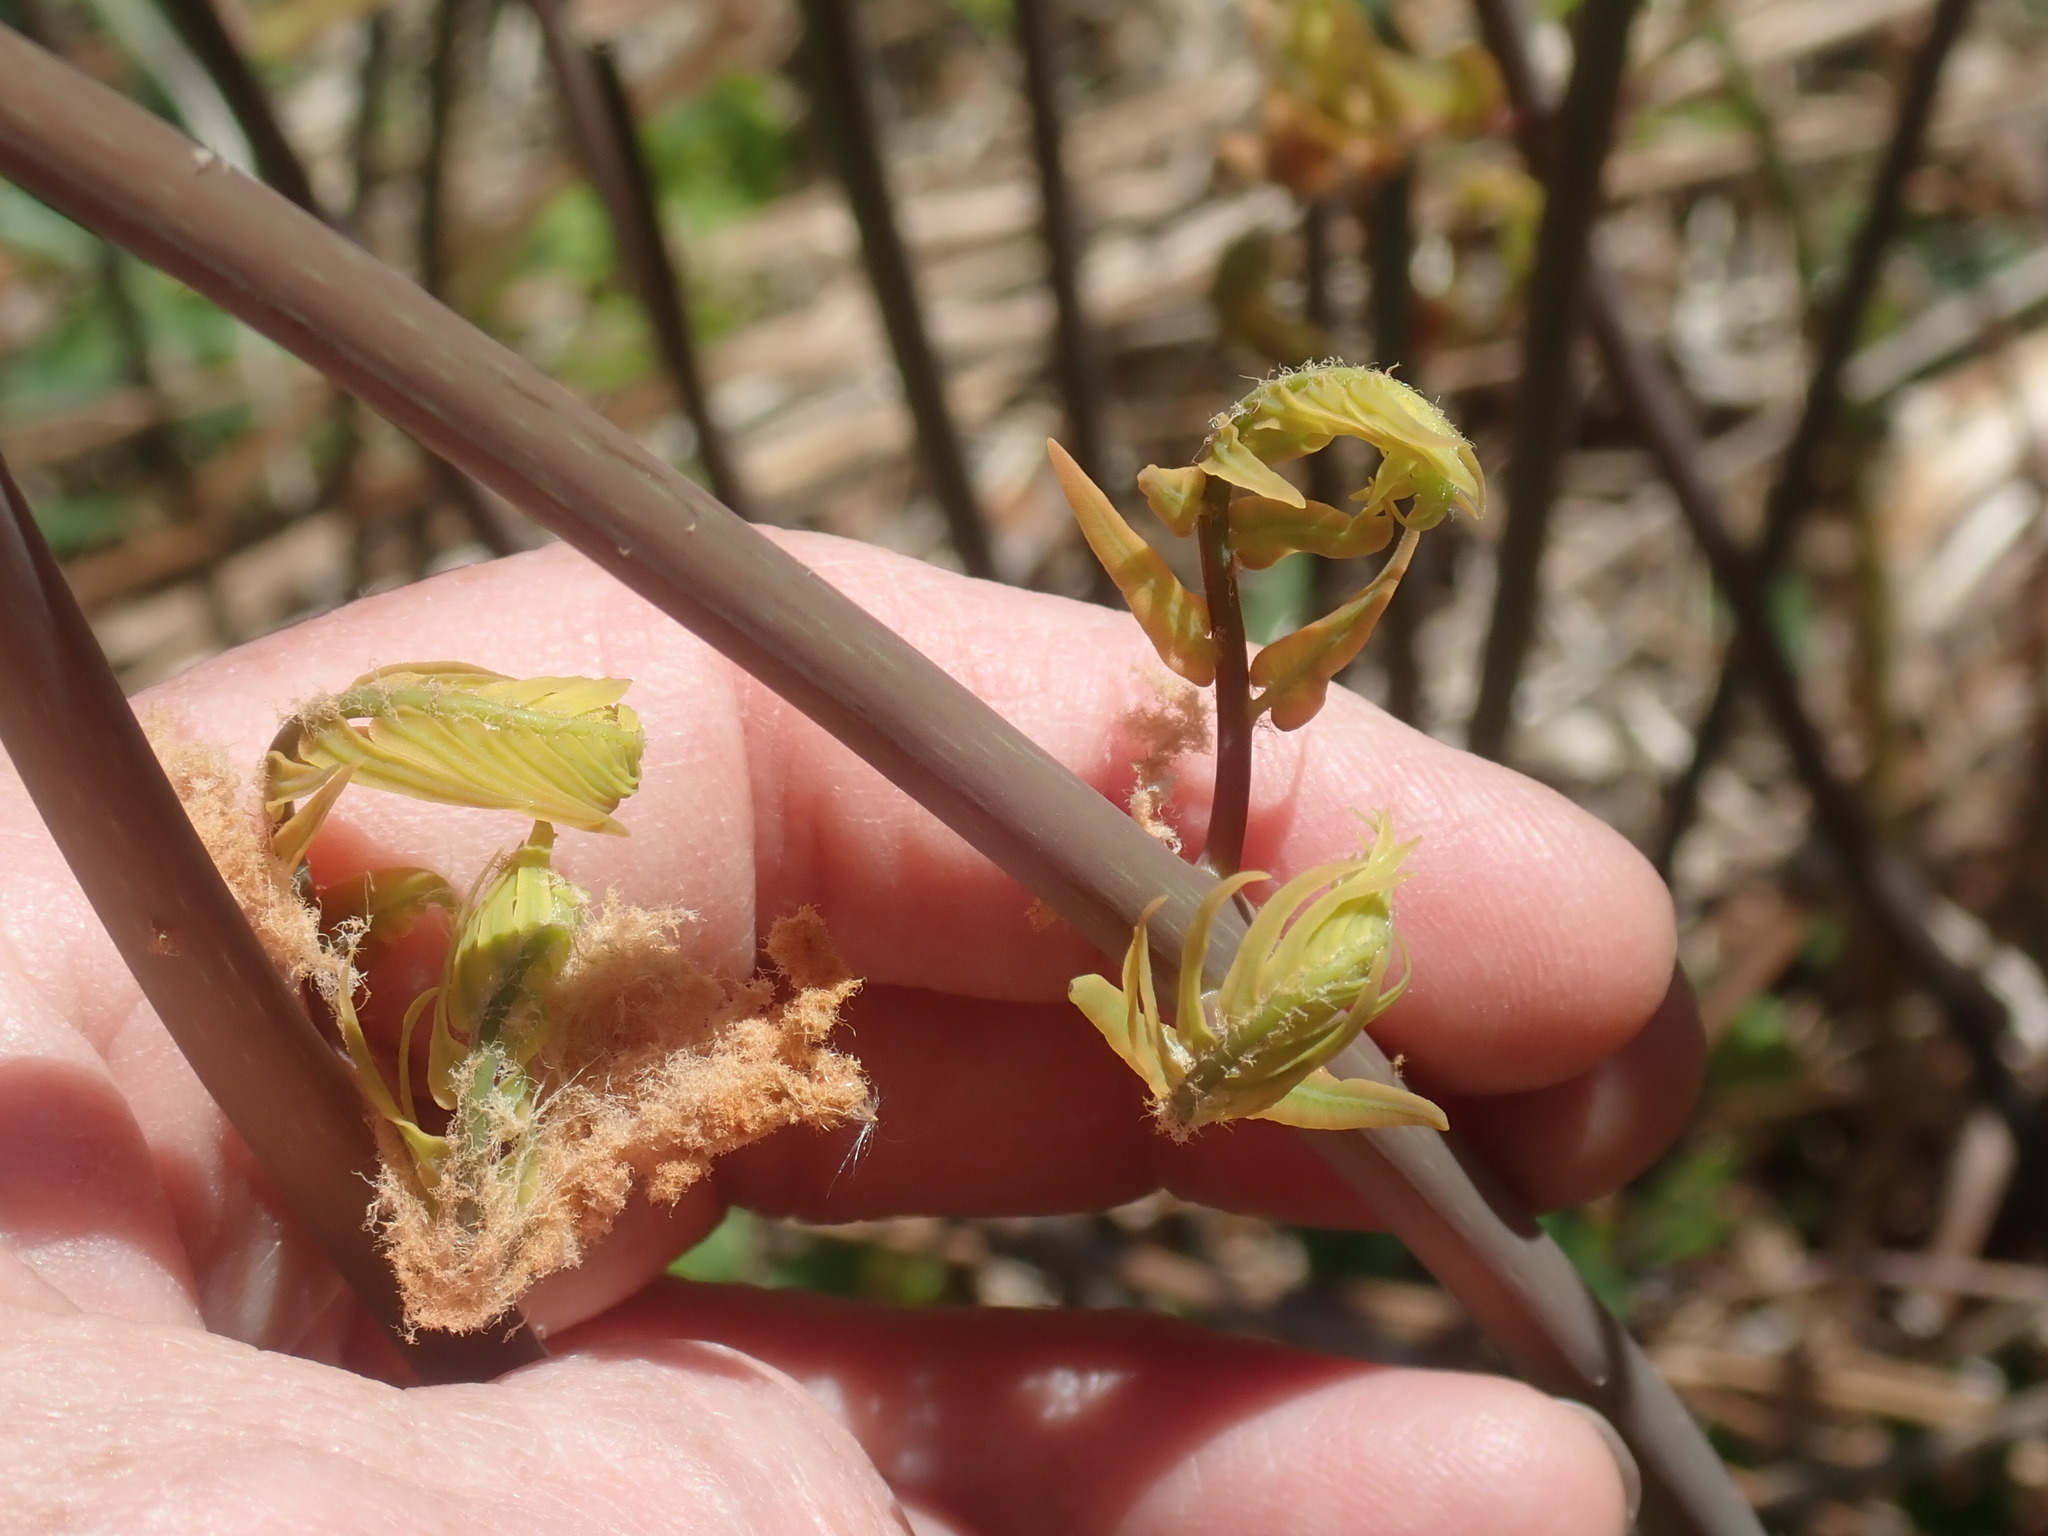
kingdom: Plantae
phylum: Tracheophyta
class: Polypodiopsida
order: Osmundales
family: Osmundaceae
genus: Osmunda
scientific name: Osmunda spectabilis
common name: American royal fern
